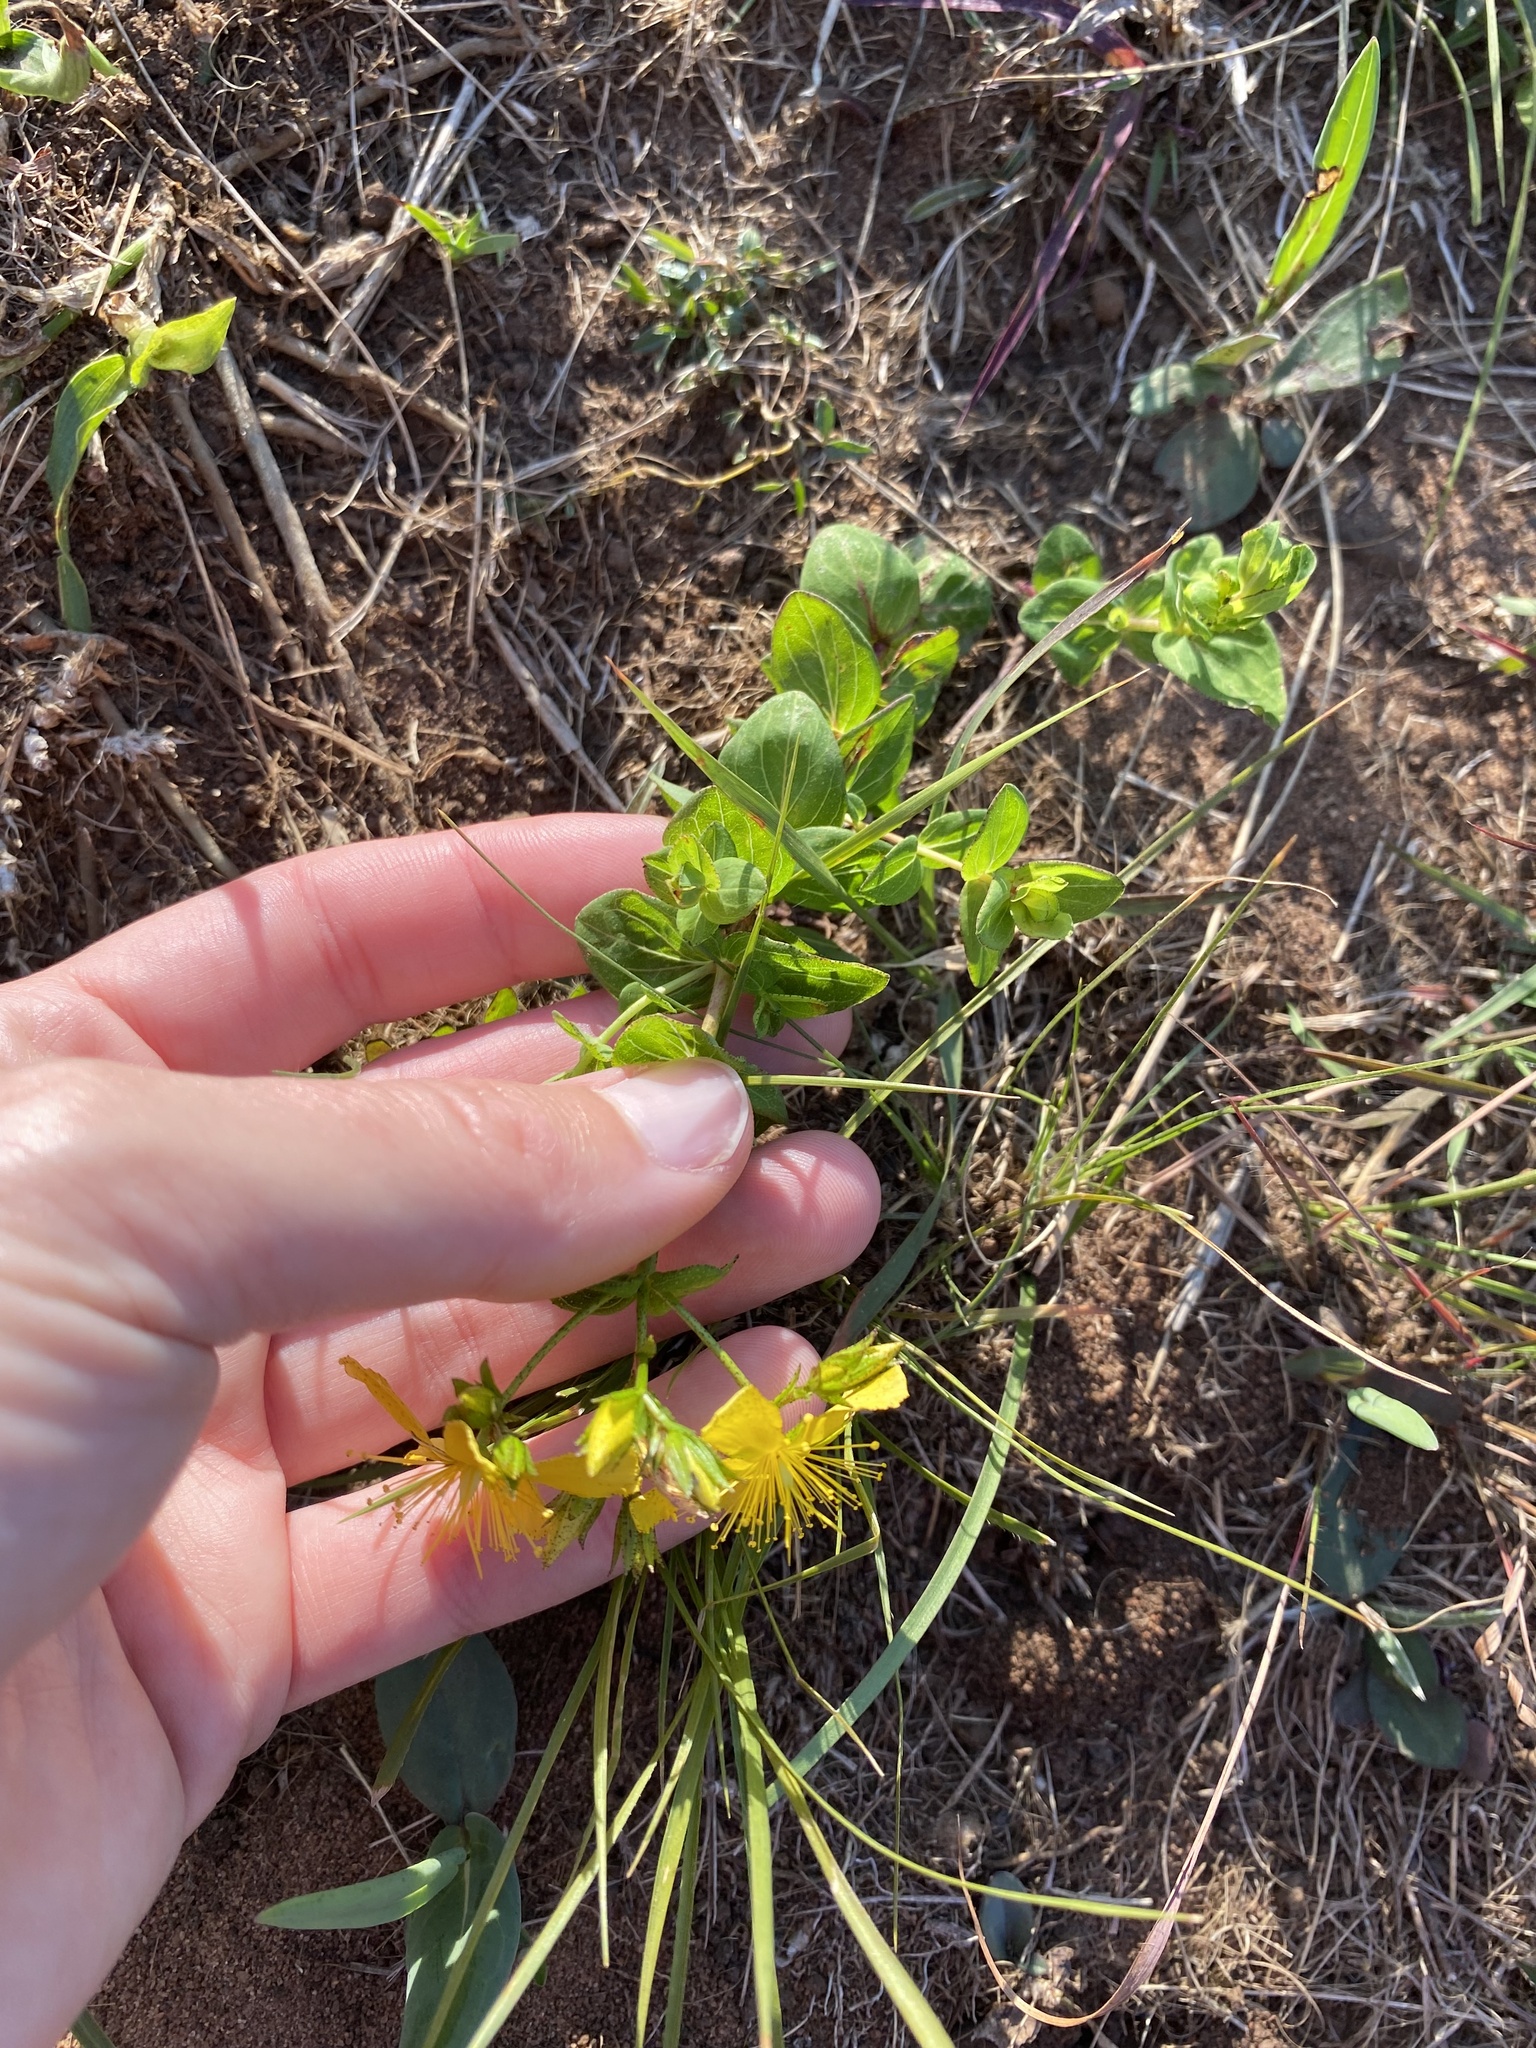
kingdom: Plantae
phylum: Tracheophyta
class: Magnoliopsida
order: Malpighiales
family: Hypericaceae
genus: Hypericum
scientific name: Hypericum aethiopicum
